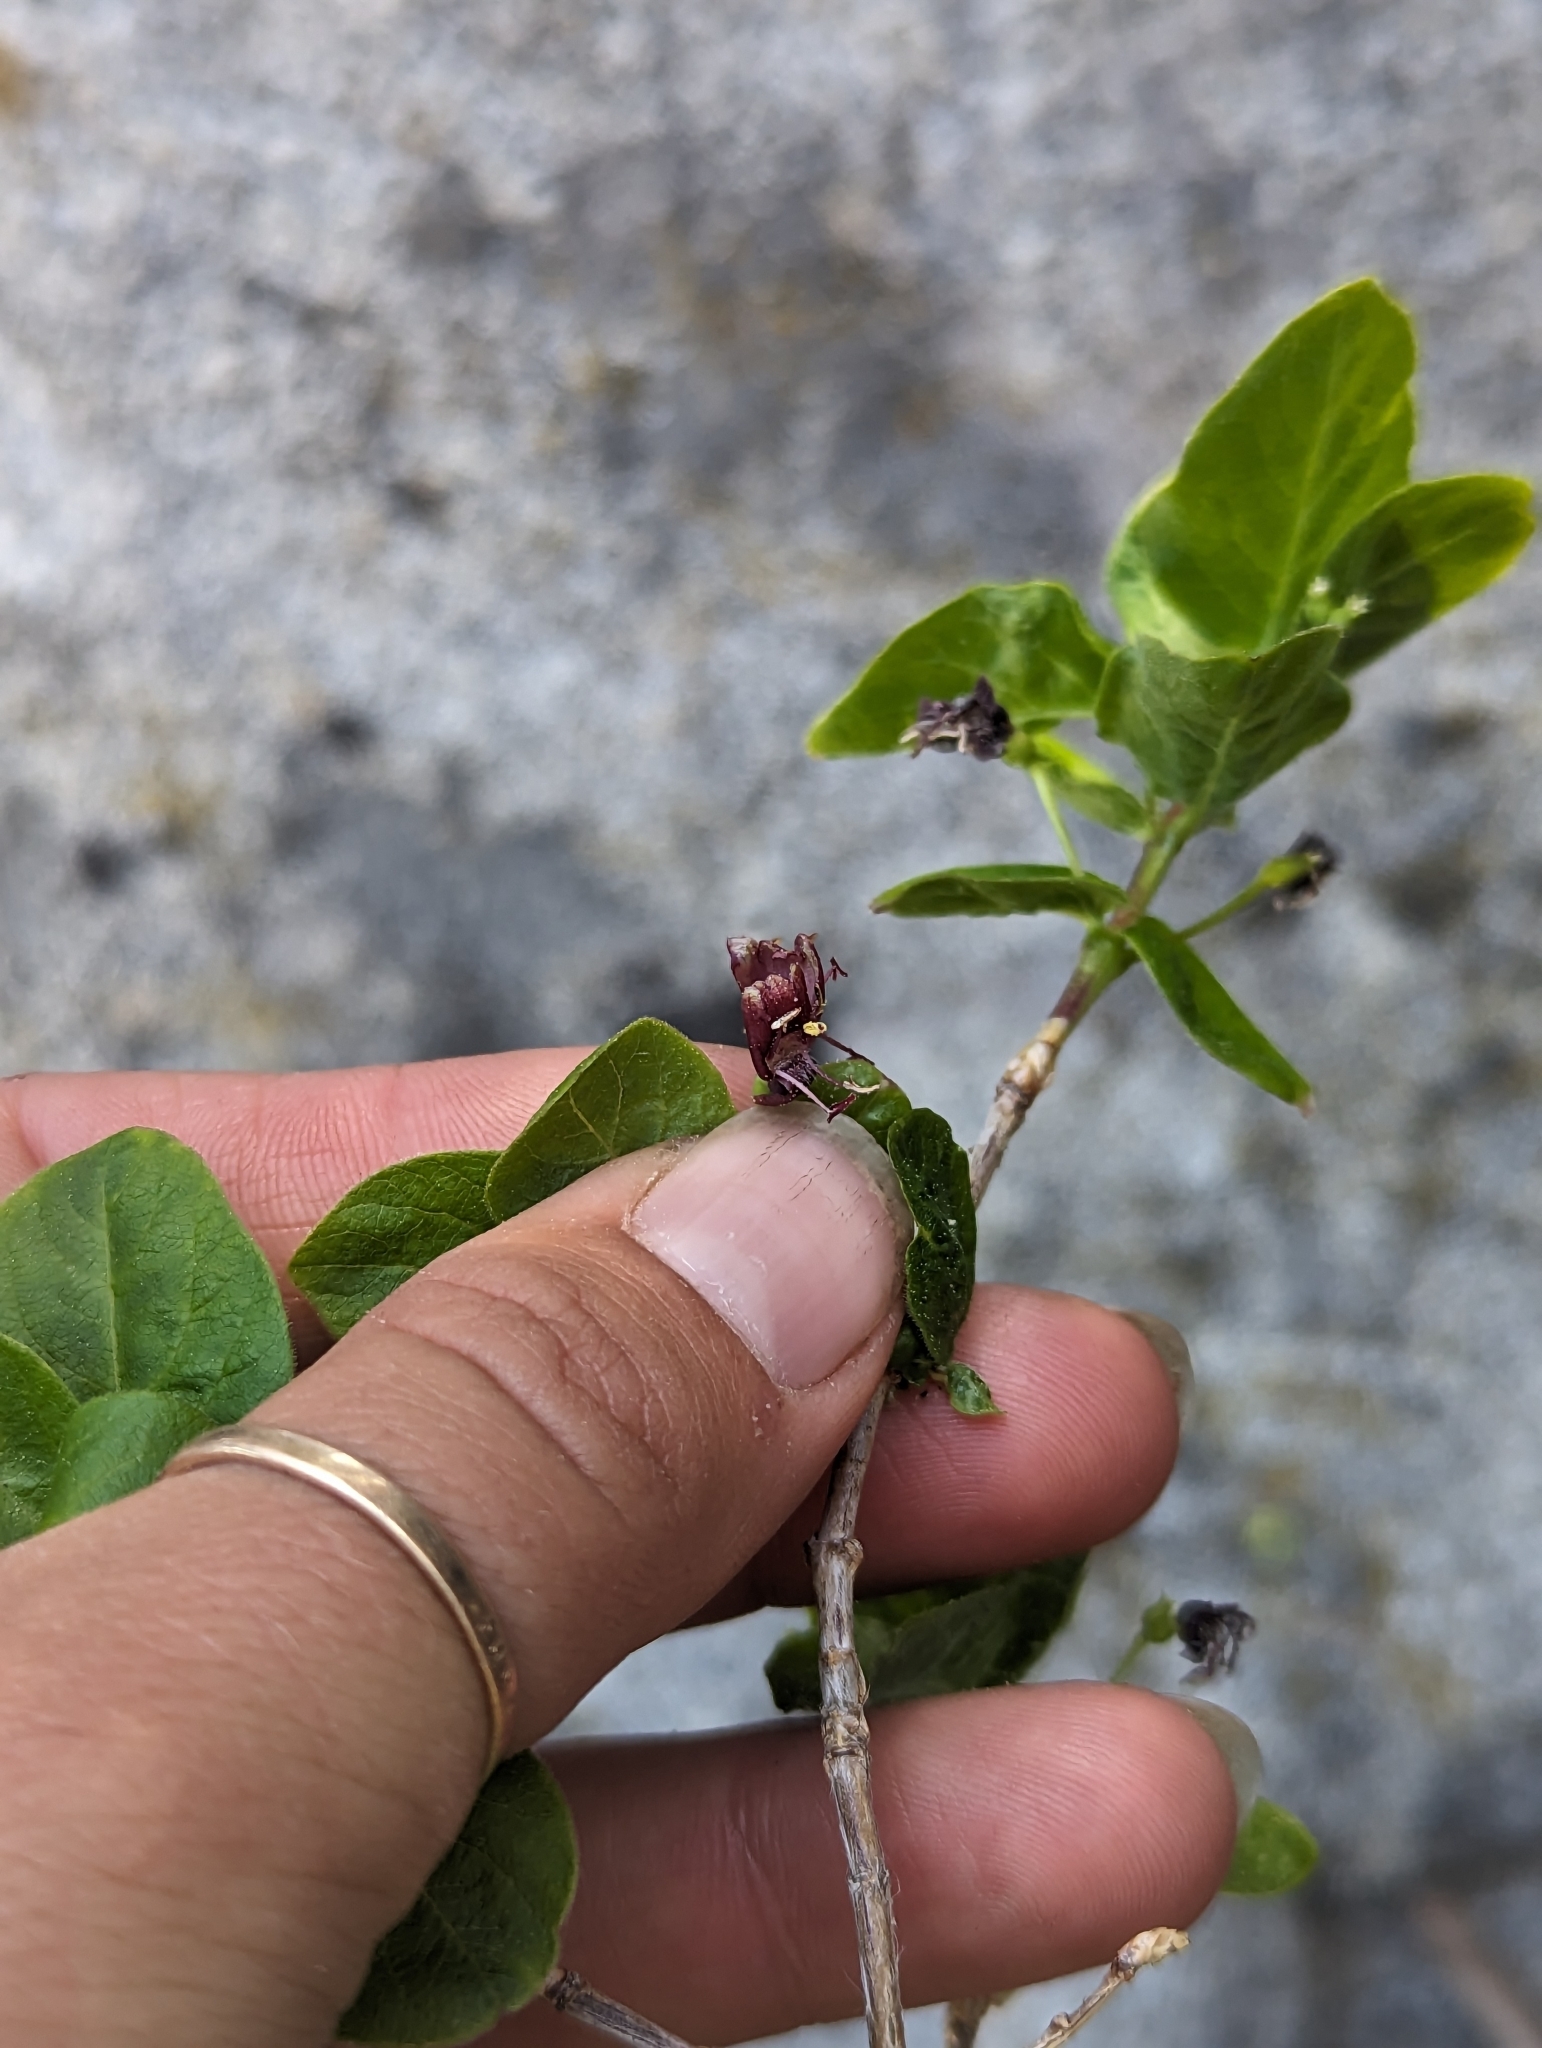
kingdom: Plantae
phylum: Tracheophyta
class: Magnoliopsida
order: Dipsacales
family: Caprifoliaceae
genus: Lonicera
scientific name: Lonicera conjugialis
